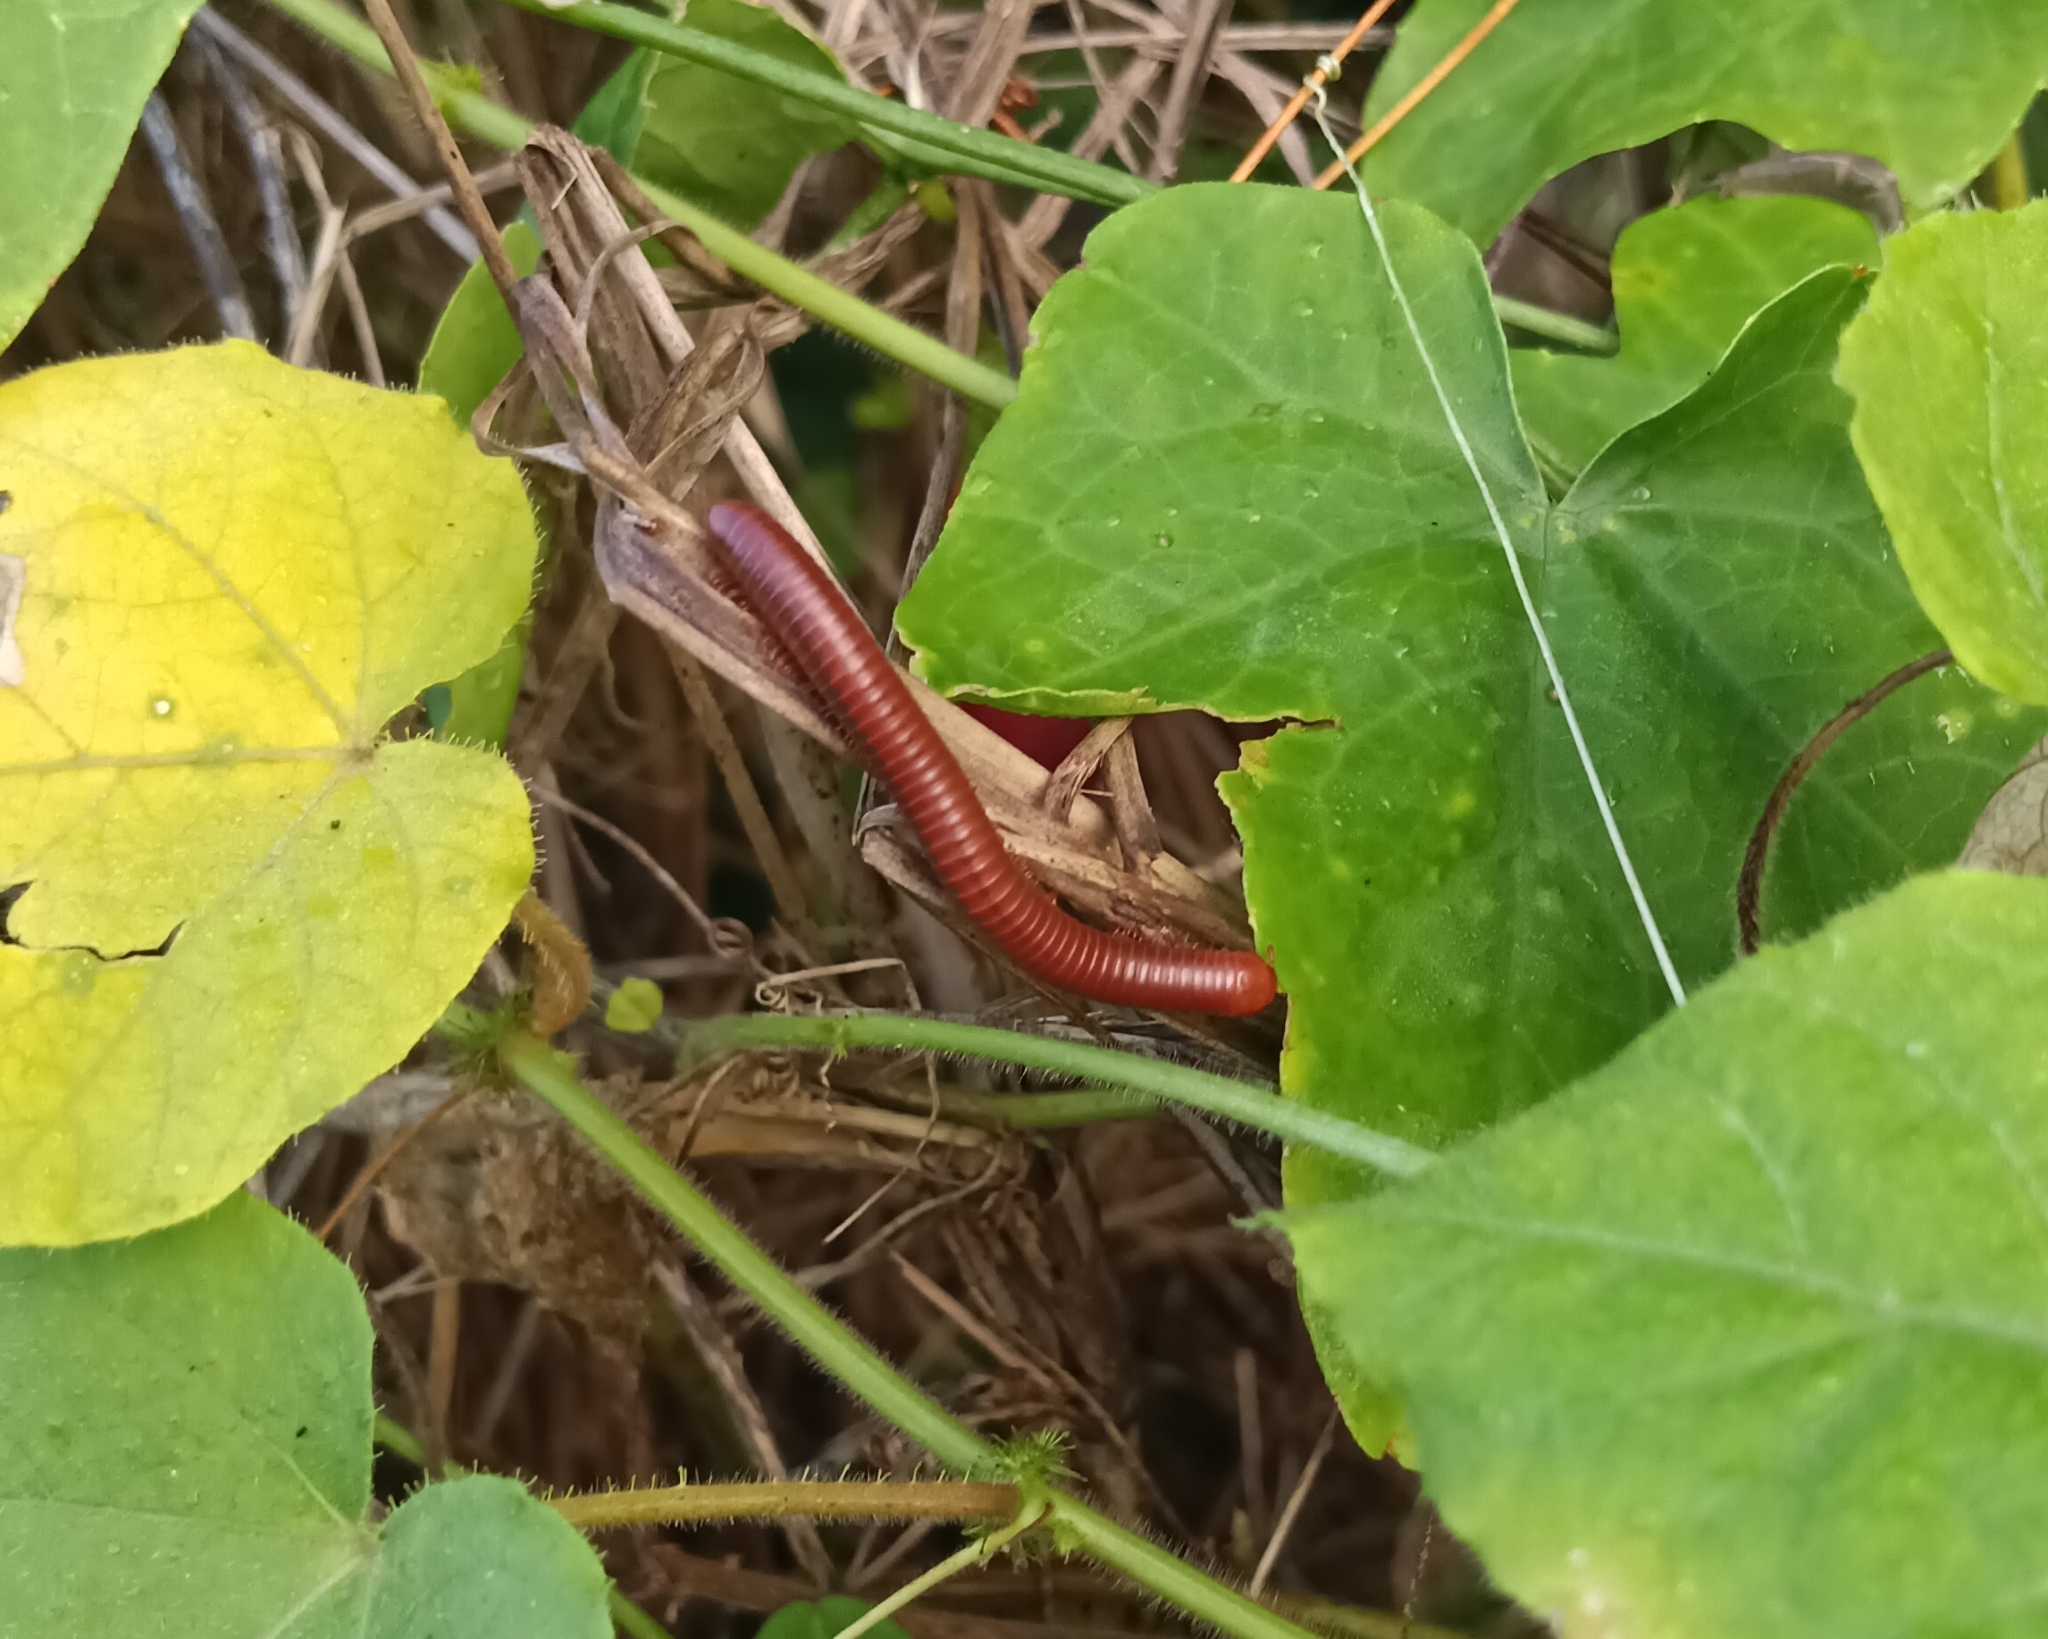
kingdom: Animalia
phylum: Arthropoda
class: Diplopoda
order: Spirobolida
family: Pachybolidae
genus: Trigoniulus
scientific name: Trigoniulus corallinus
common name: Millipede
